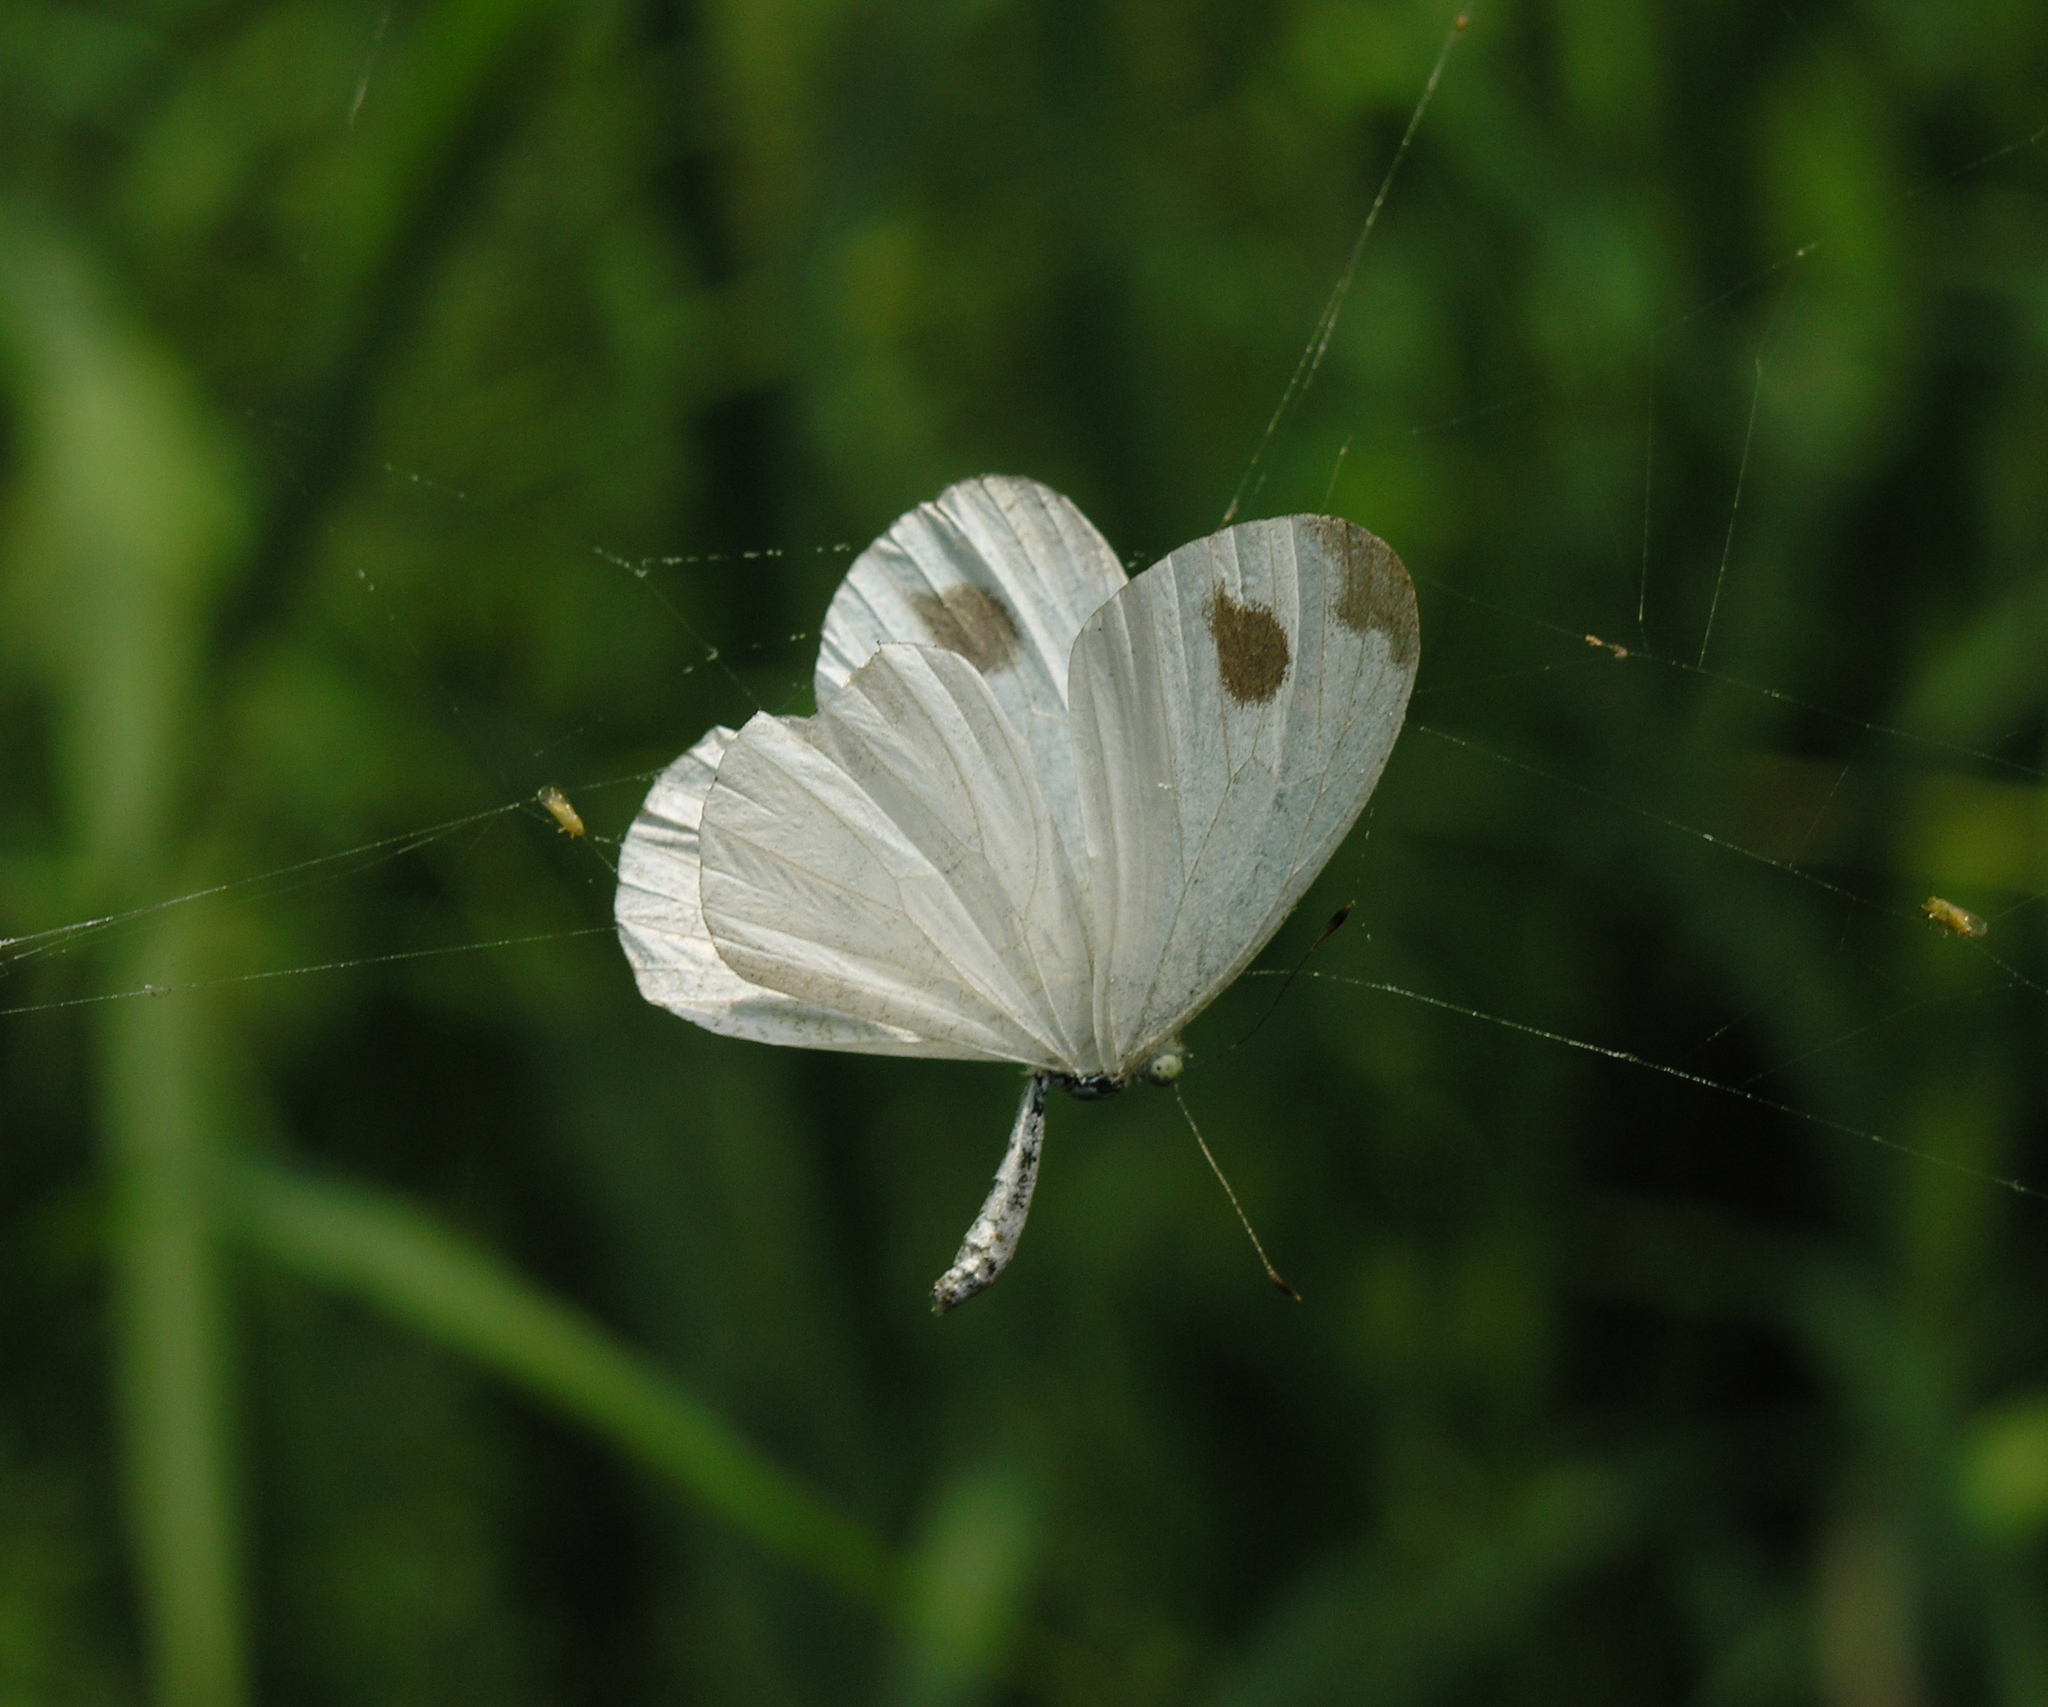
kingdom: Animalia
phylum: Arthropoda
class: Insecta
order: Lepidoptera
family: Pieridae
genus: Leptosia
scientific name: Leptosia nina
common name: Psyche
